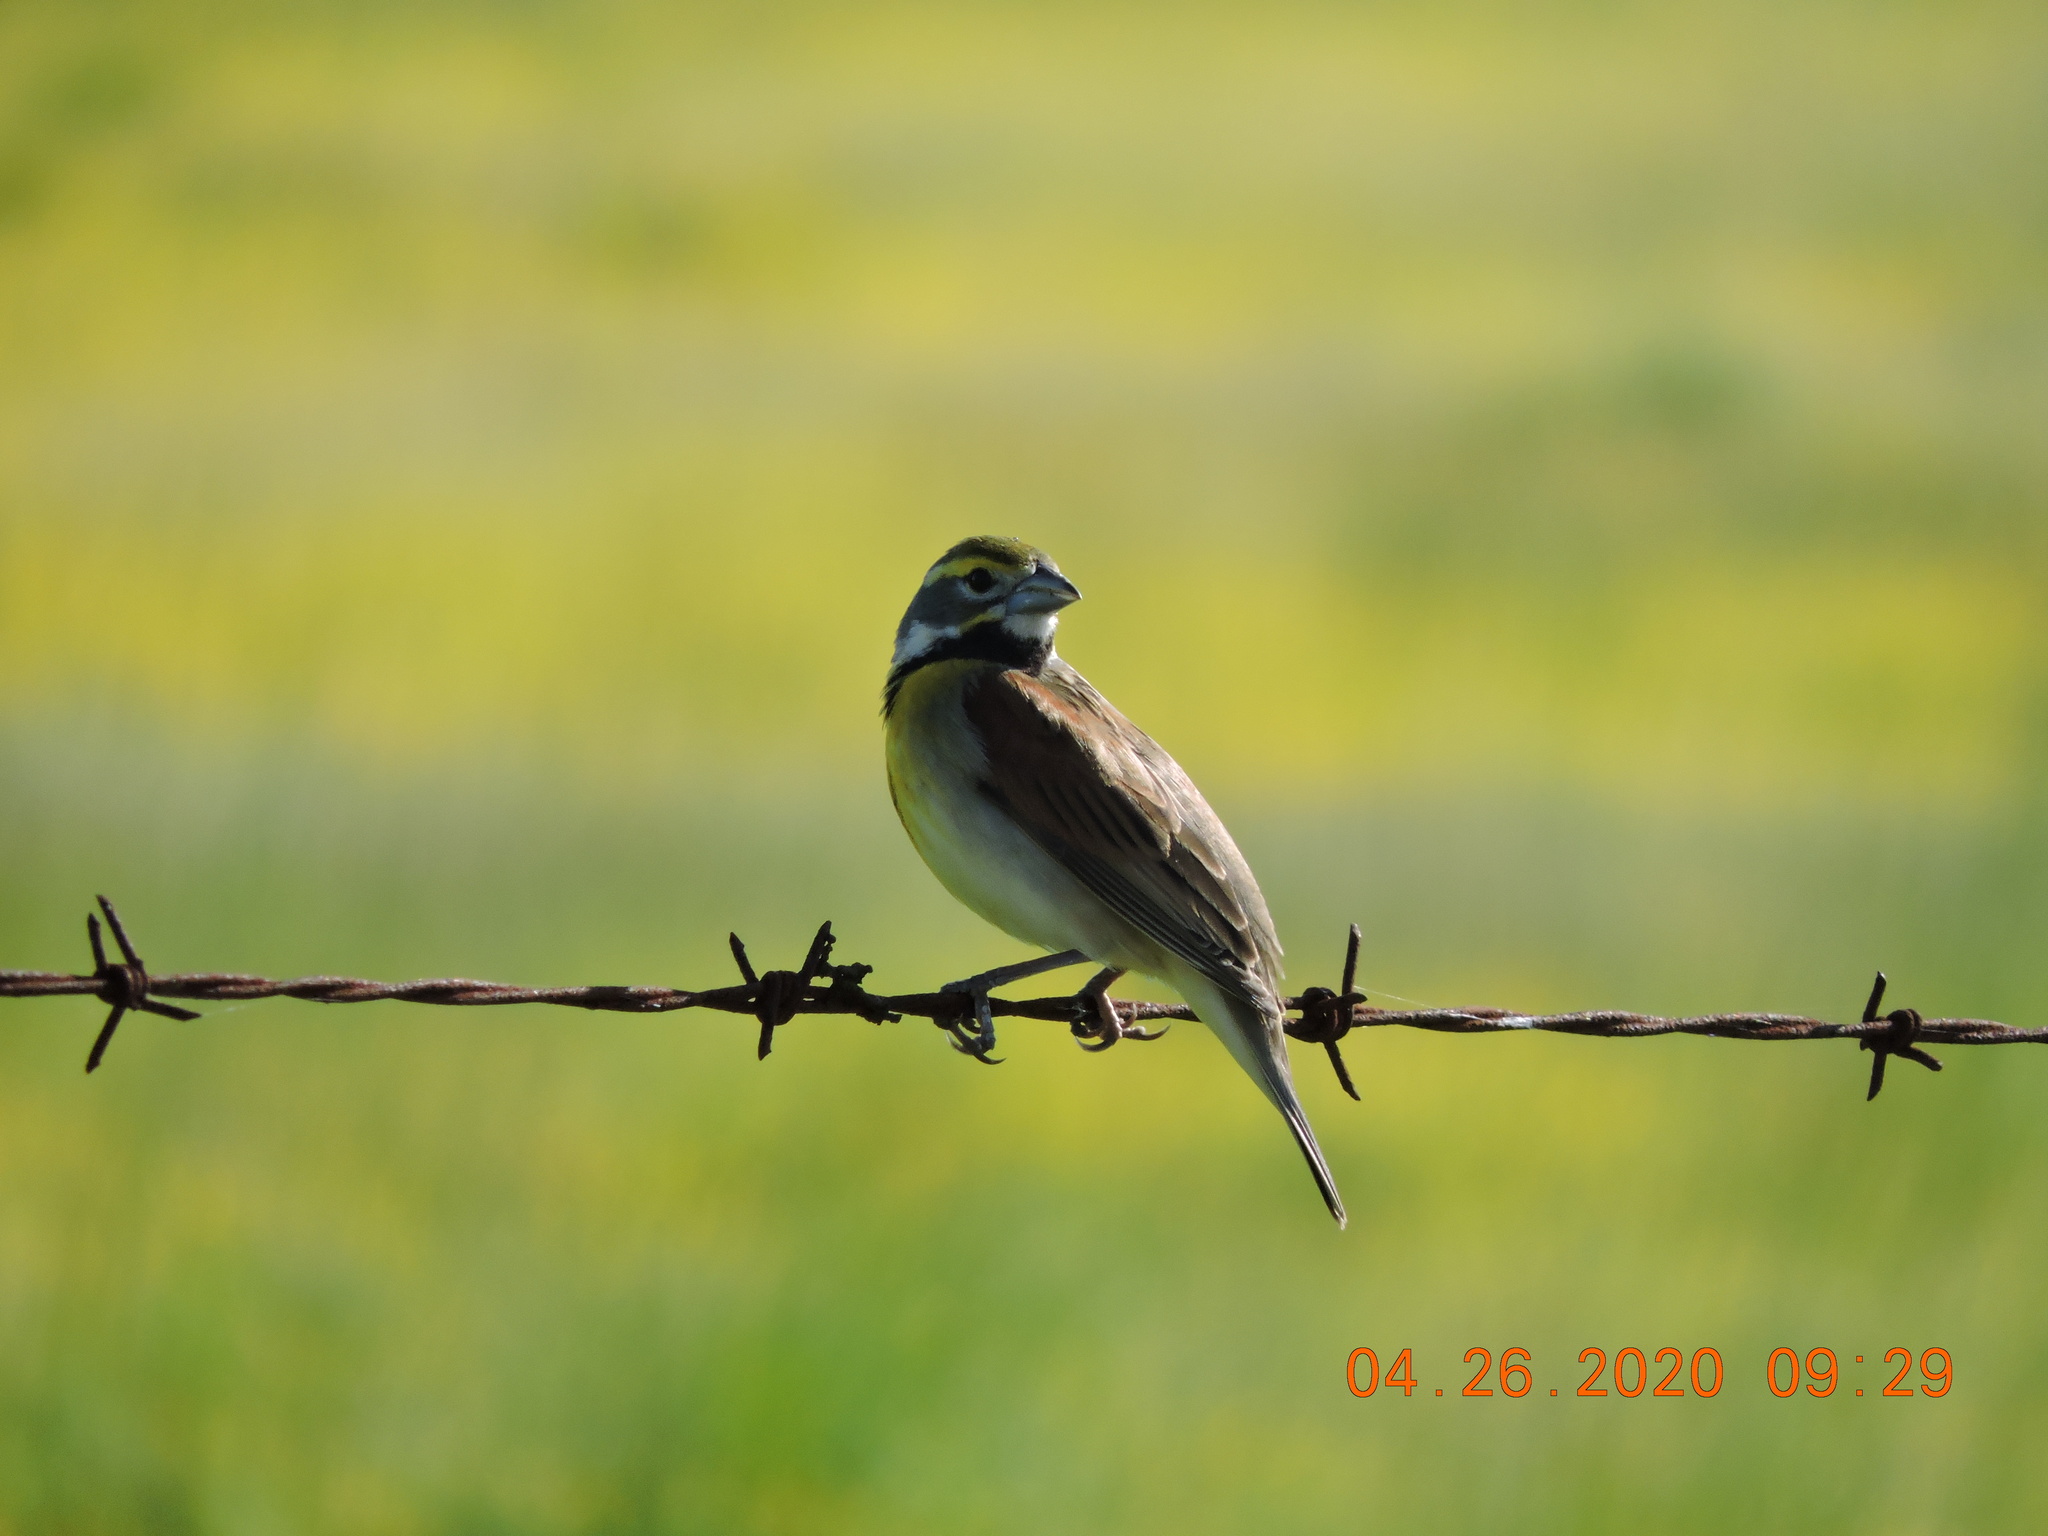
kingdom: Animalia
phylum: Chordata
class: Aves
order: Passeriformes
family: Cardinalidae
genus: Spiza
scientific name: Spiza americana
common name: Dickcissel
